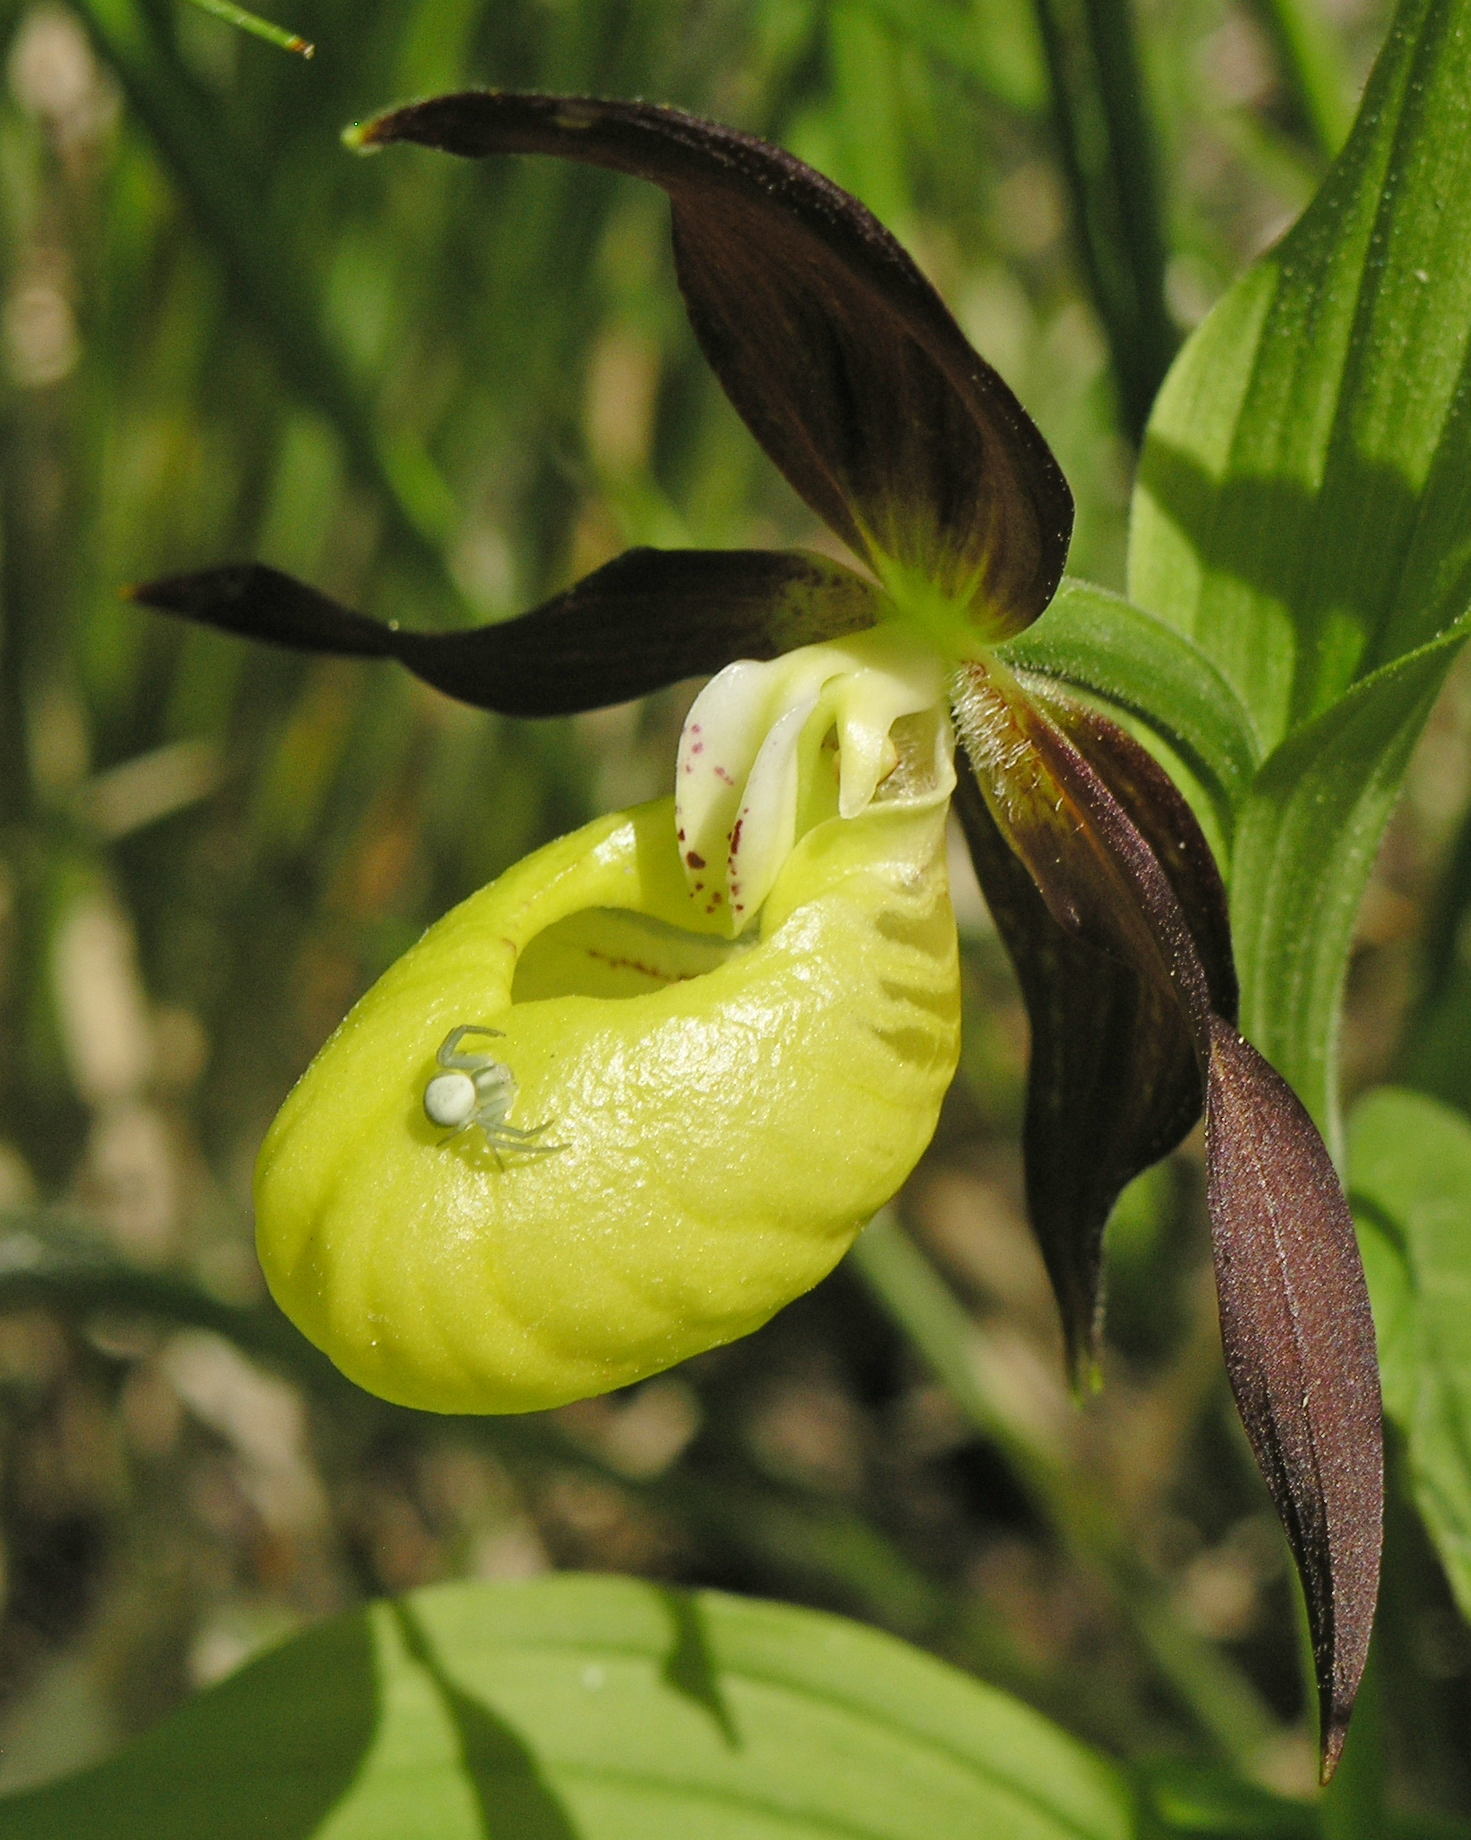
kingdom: Animalia
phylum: Arthropoda
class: Arachnida
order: Araneae
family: Thomisidae
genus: Misumena
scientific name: Misumena vatia
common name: Goldenrod crab spider
